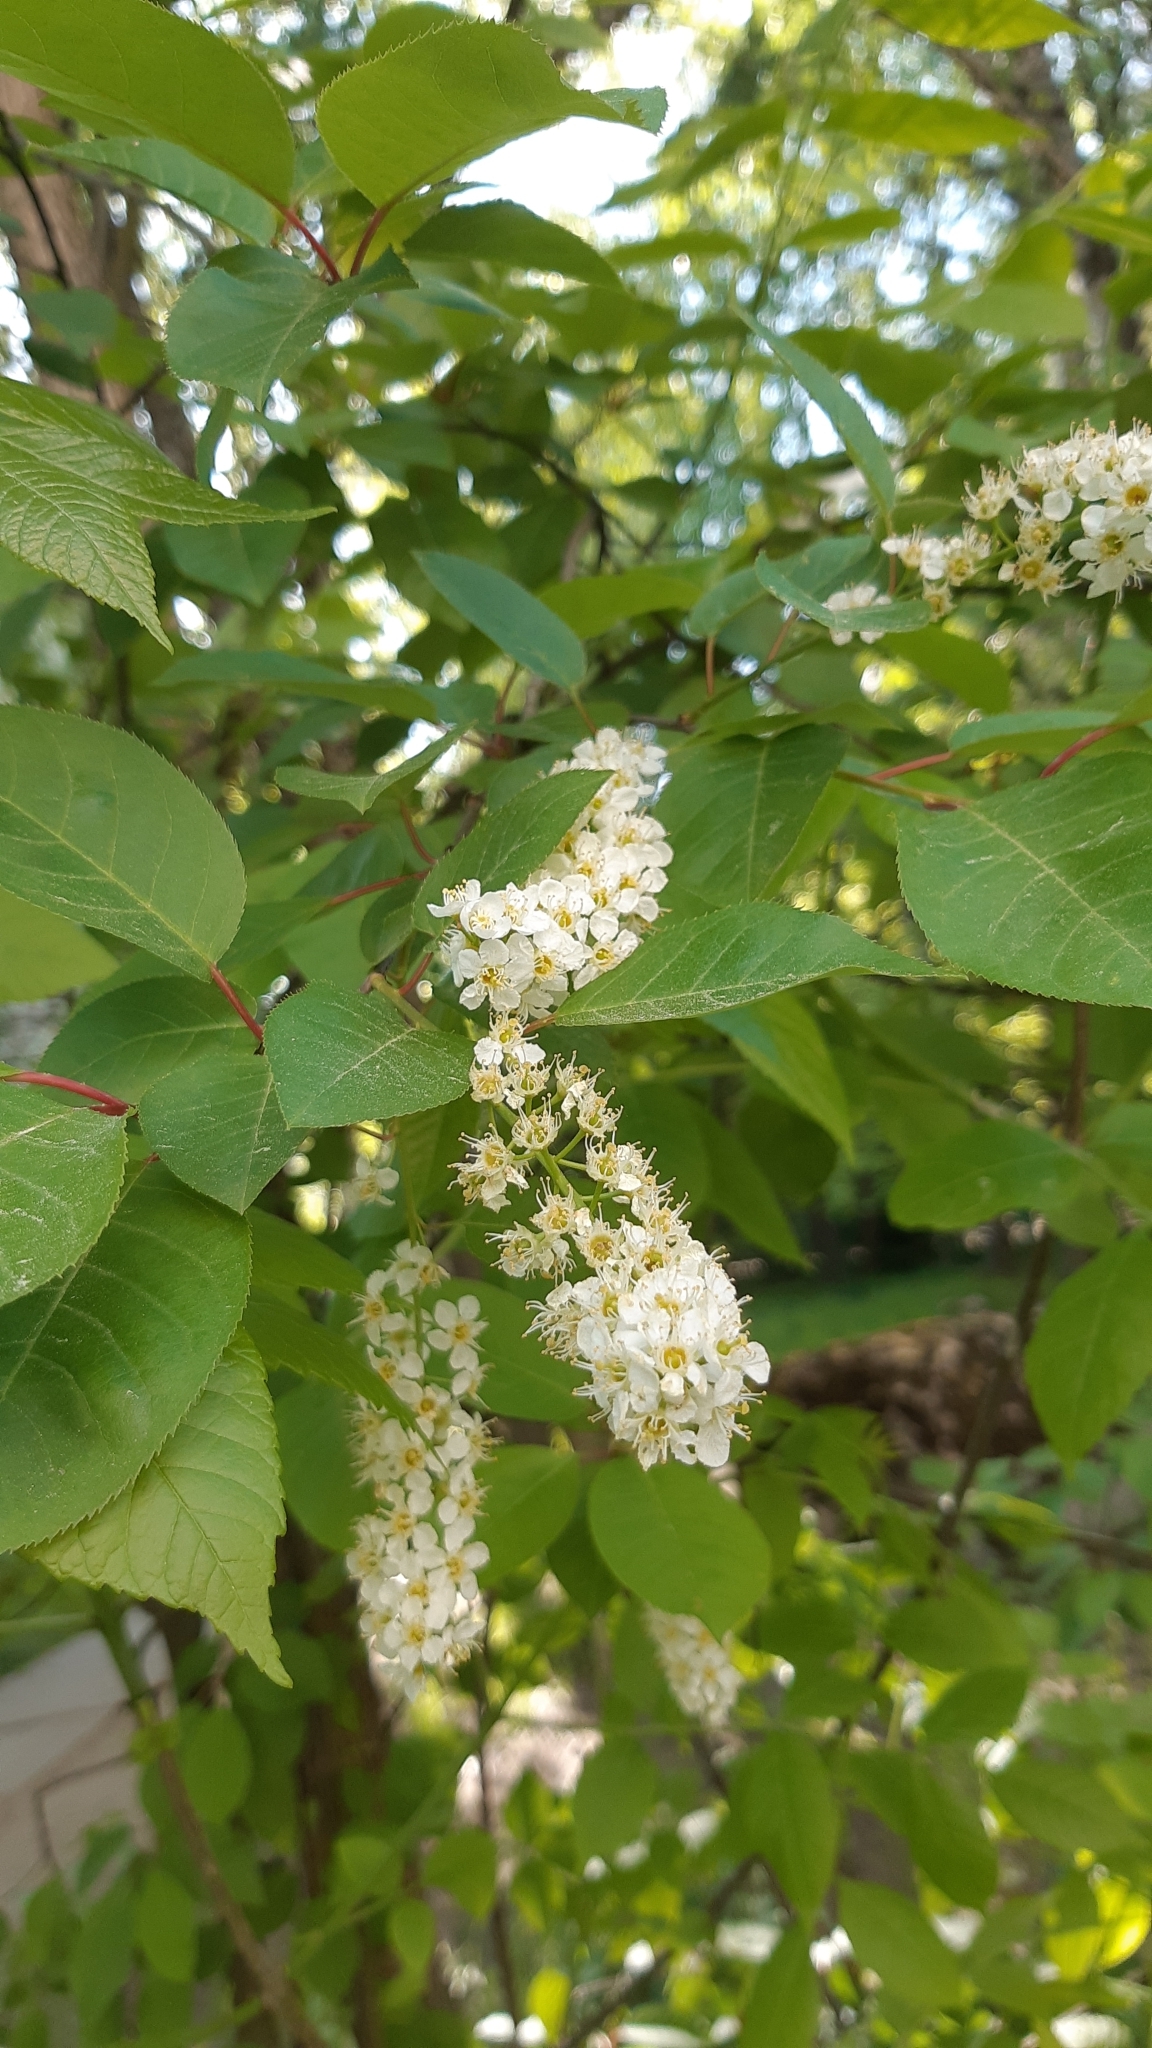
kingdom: Plantae
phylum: Tracheophyta
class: Magnoliopsida
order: Rosales
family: Rosaceae
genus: Prunus
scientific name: Prunus padus
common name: Bird cherry
